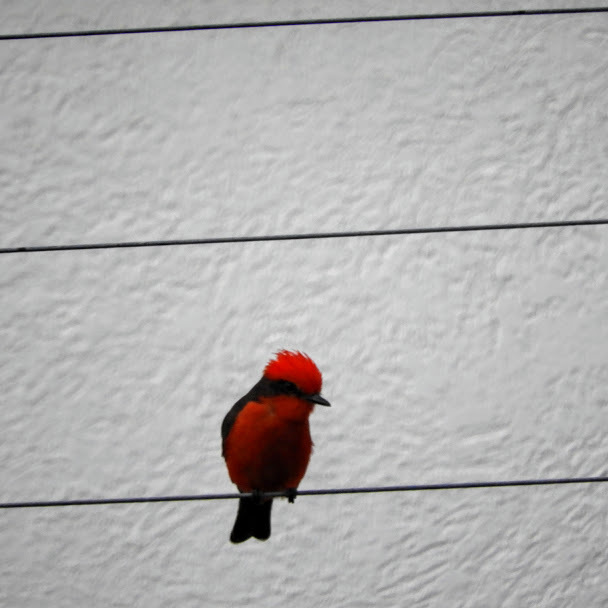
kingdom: Animalia
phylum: Chordata
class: Aves
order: Passeriformes
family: Tyrannidae
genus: Pyrocephalus
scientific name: Pyrocephalus rubinus
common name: Vermilion flycatcher
